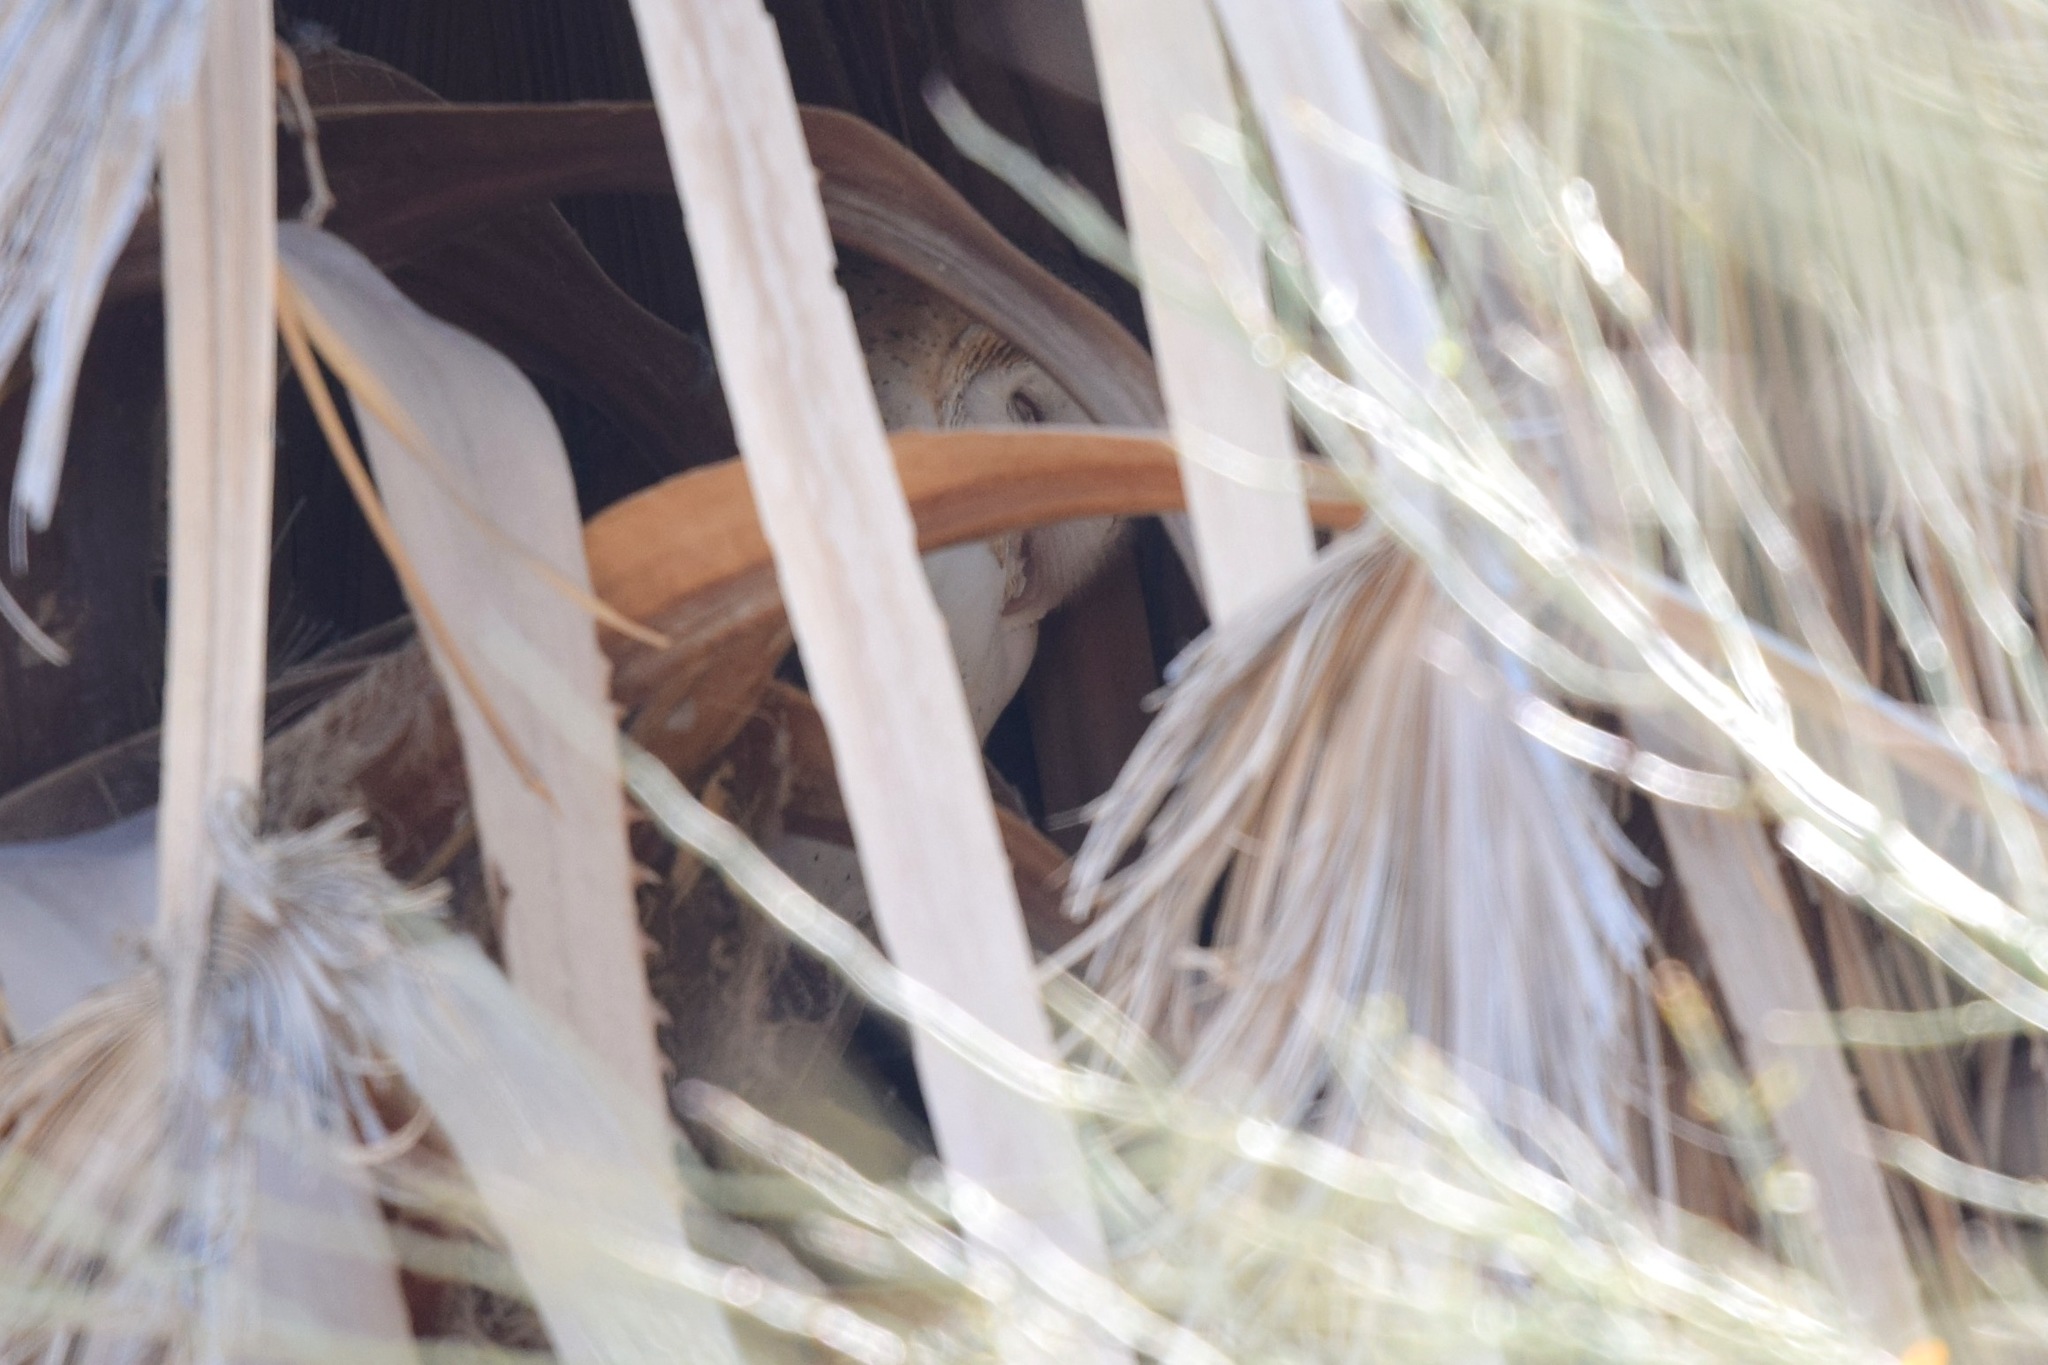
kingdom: Animalia
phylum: Chordata
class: Aves
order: Strigiformes
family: Tytonidae
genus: Tyto
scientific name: Tyto alba
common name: Barn owl
